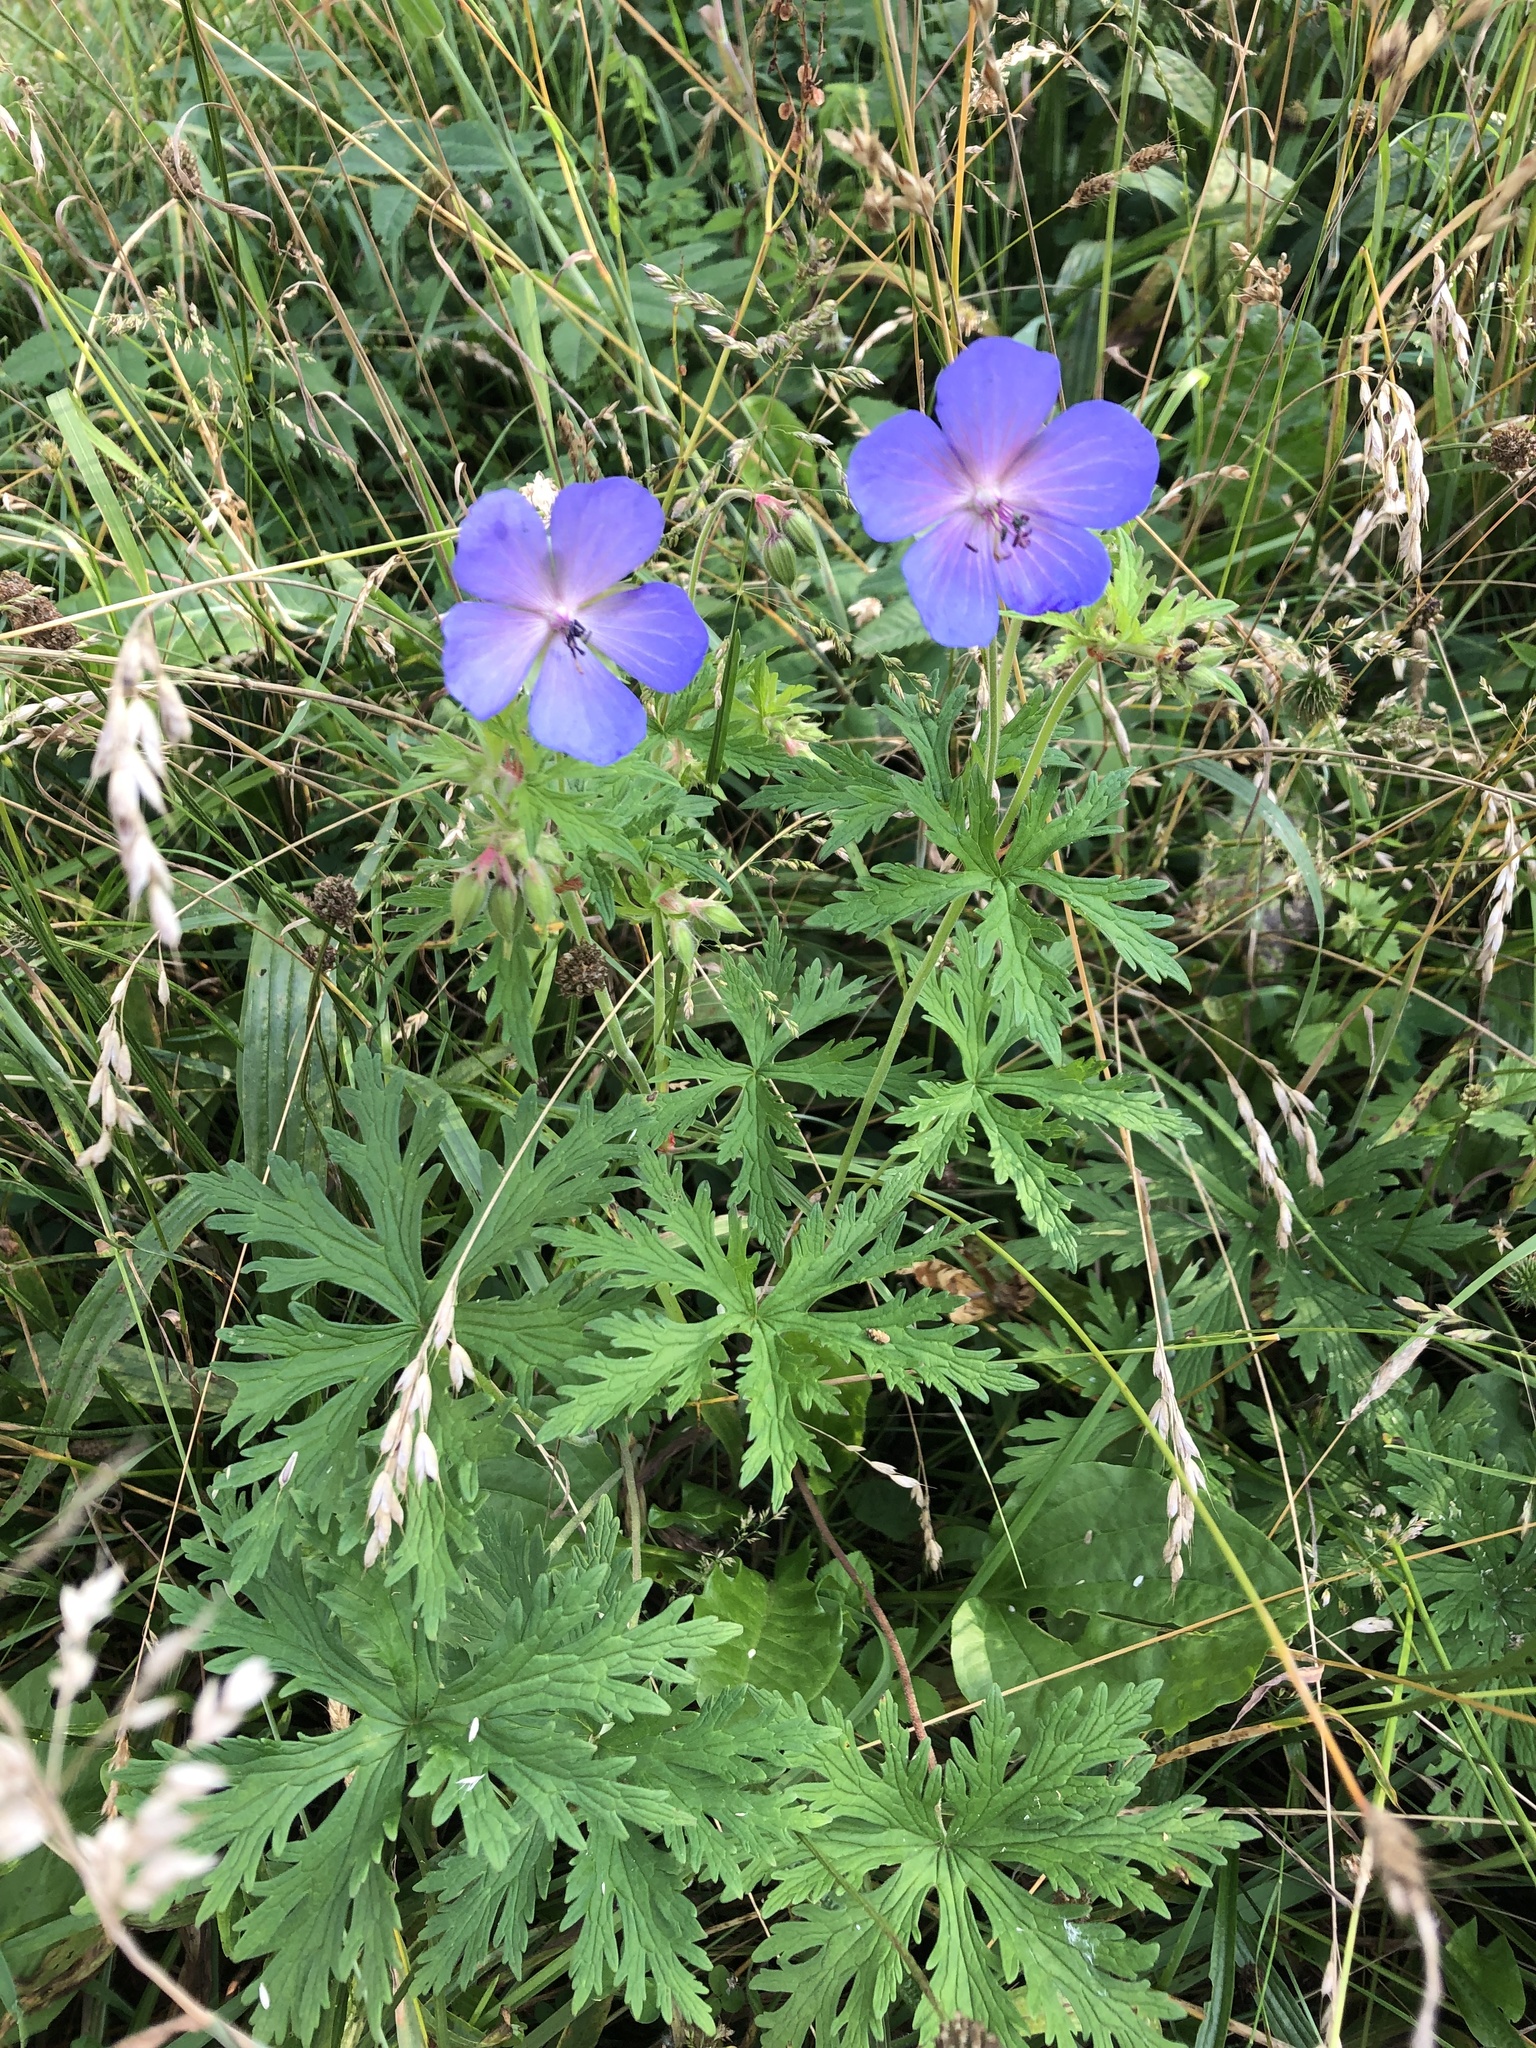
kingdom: Plantae
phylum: Tracheophyta
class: Magnoliopsida
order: Geraniales
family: Geraniaceae
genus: Geranium
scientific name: Geranium pratense
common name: Meadow crane's-bill
